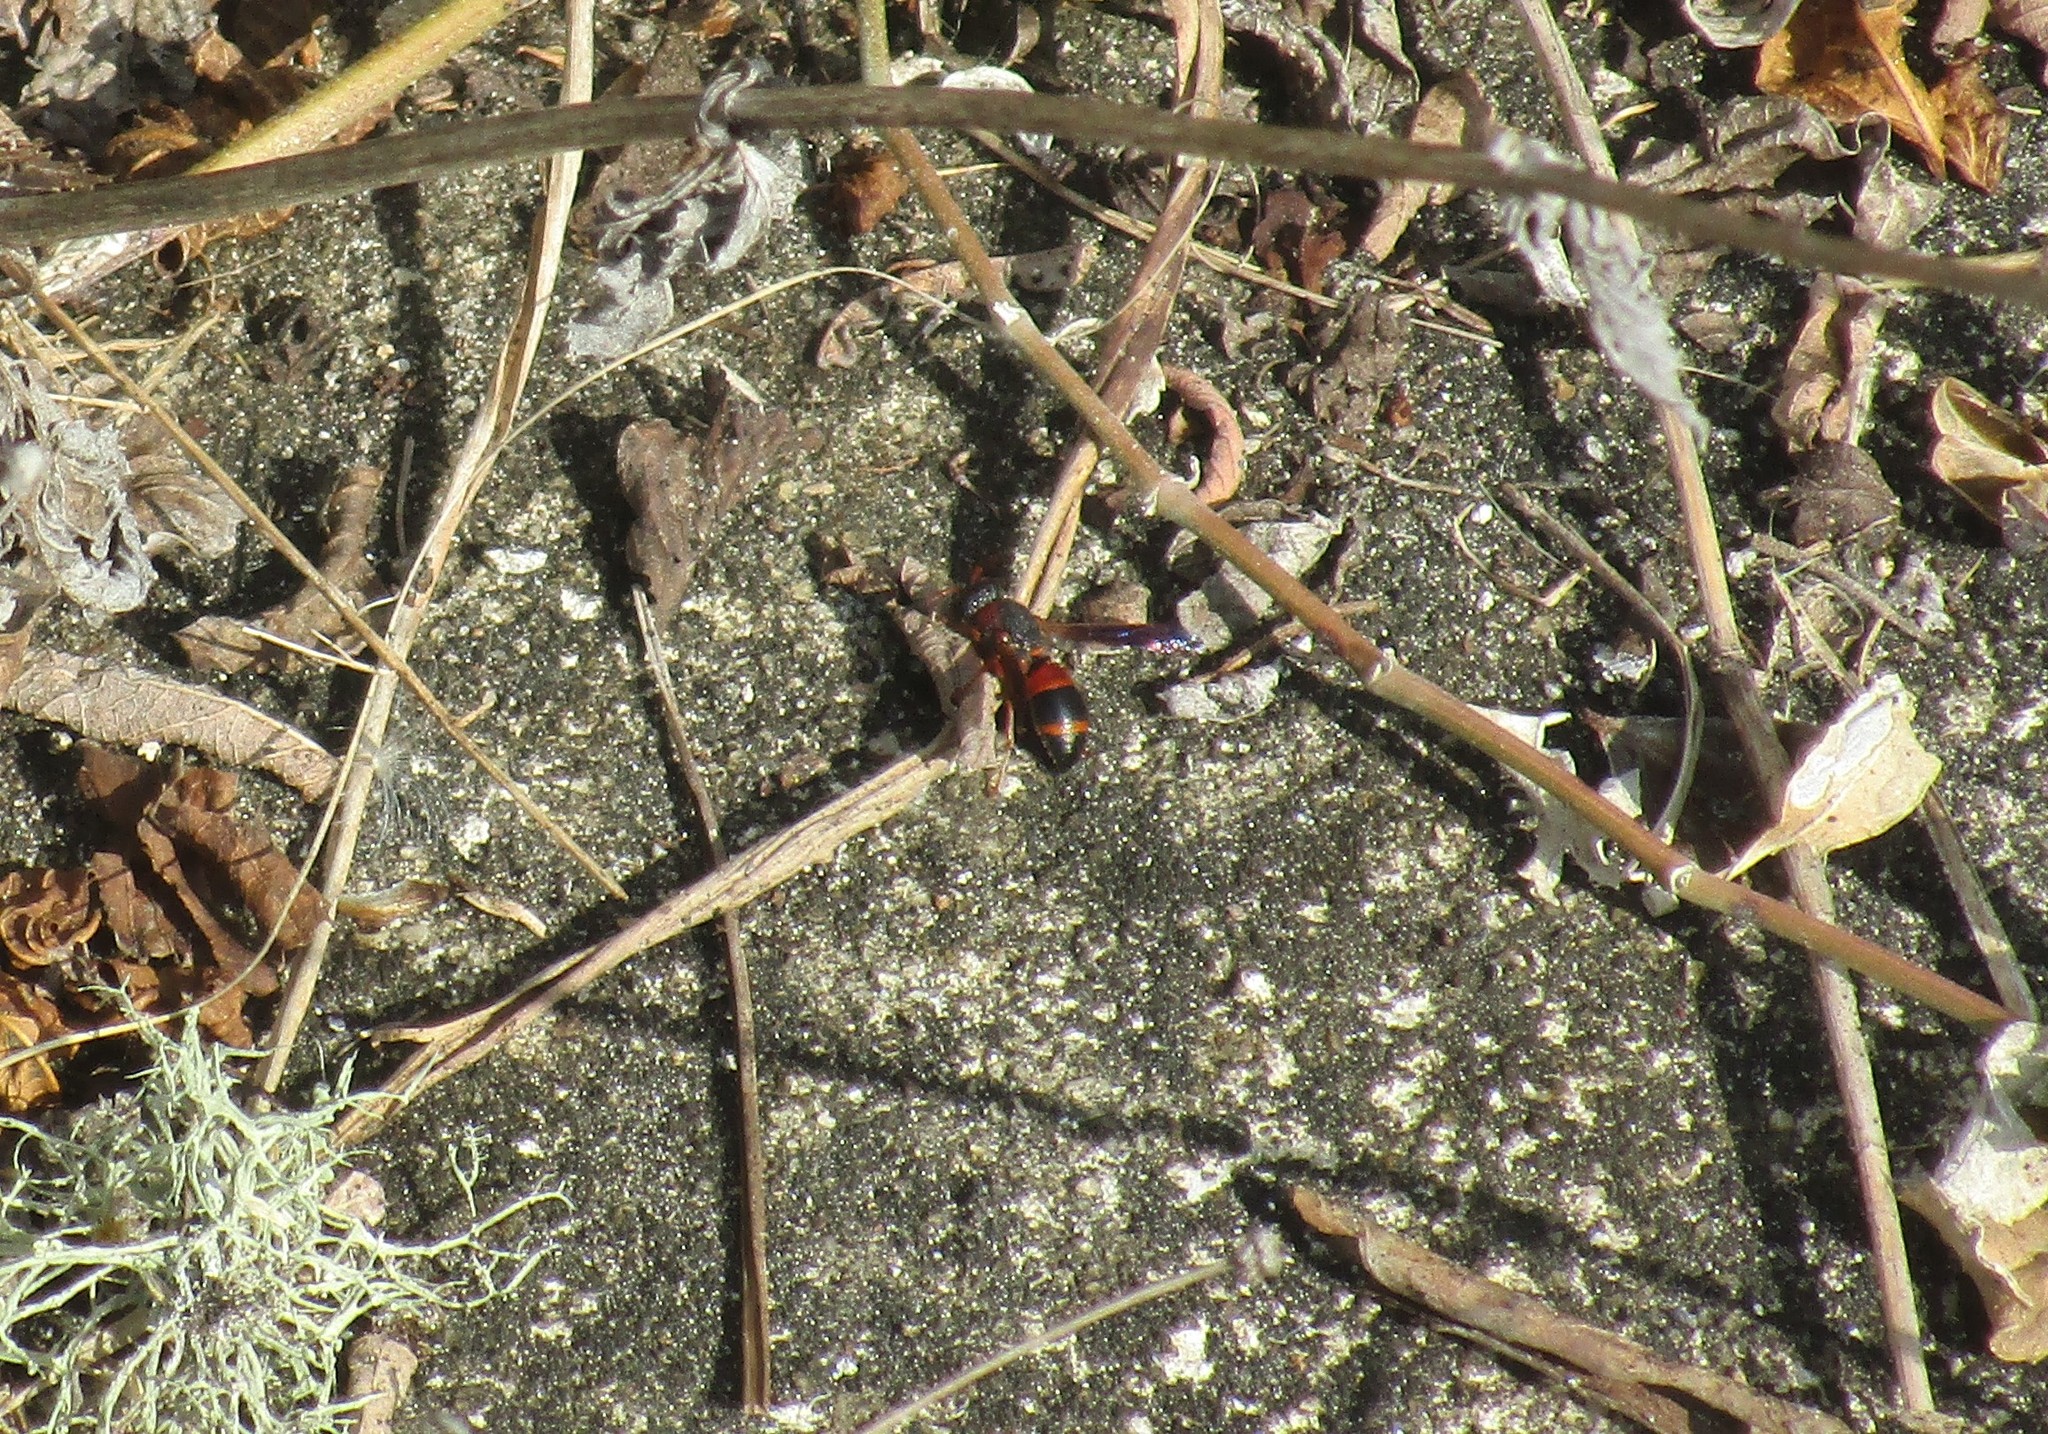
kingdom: Animalia
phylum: Arthropoda
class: Insecta
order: Hymenoptera
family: Eumenidae
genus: Pachodynerus
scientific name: Pachodynerus erynnis
